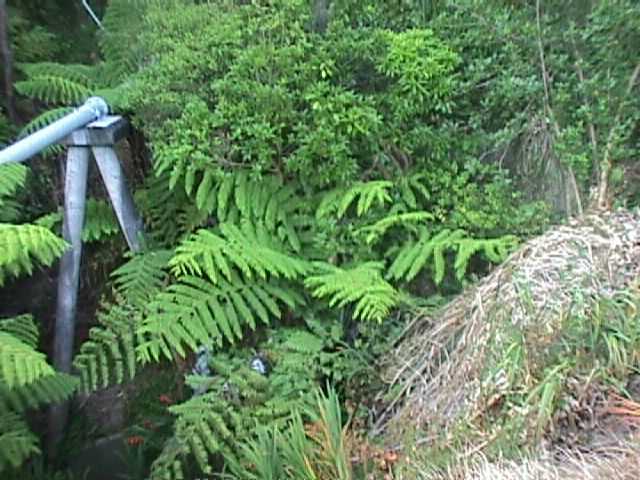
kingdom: Plantae
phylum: Tracheophyta
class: Polypodiopsida
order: Cyatheales
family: Cyatheaceae
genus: Alsophila
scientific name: Alsophila dealbata
